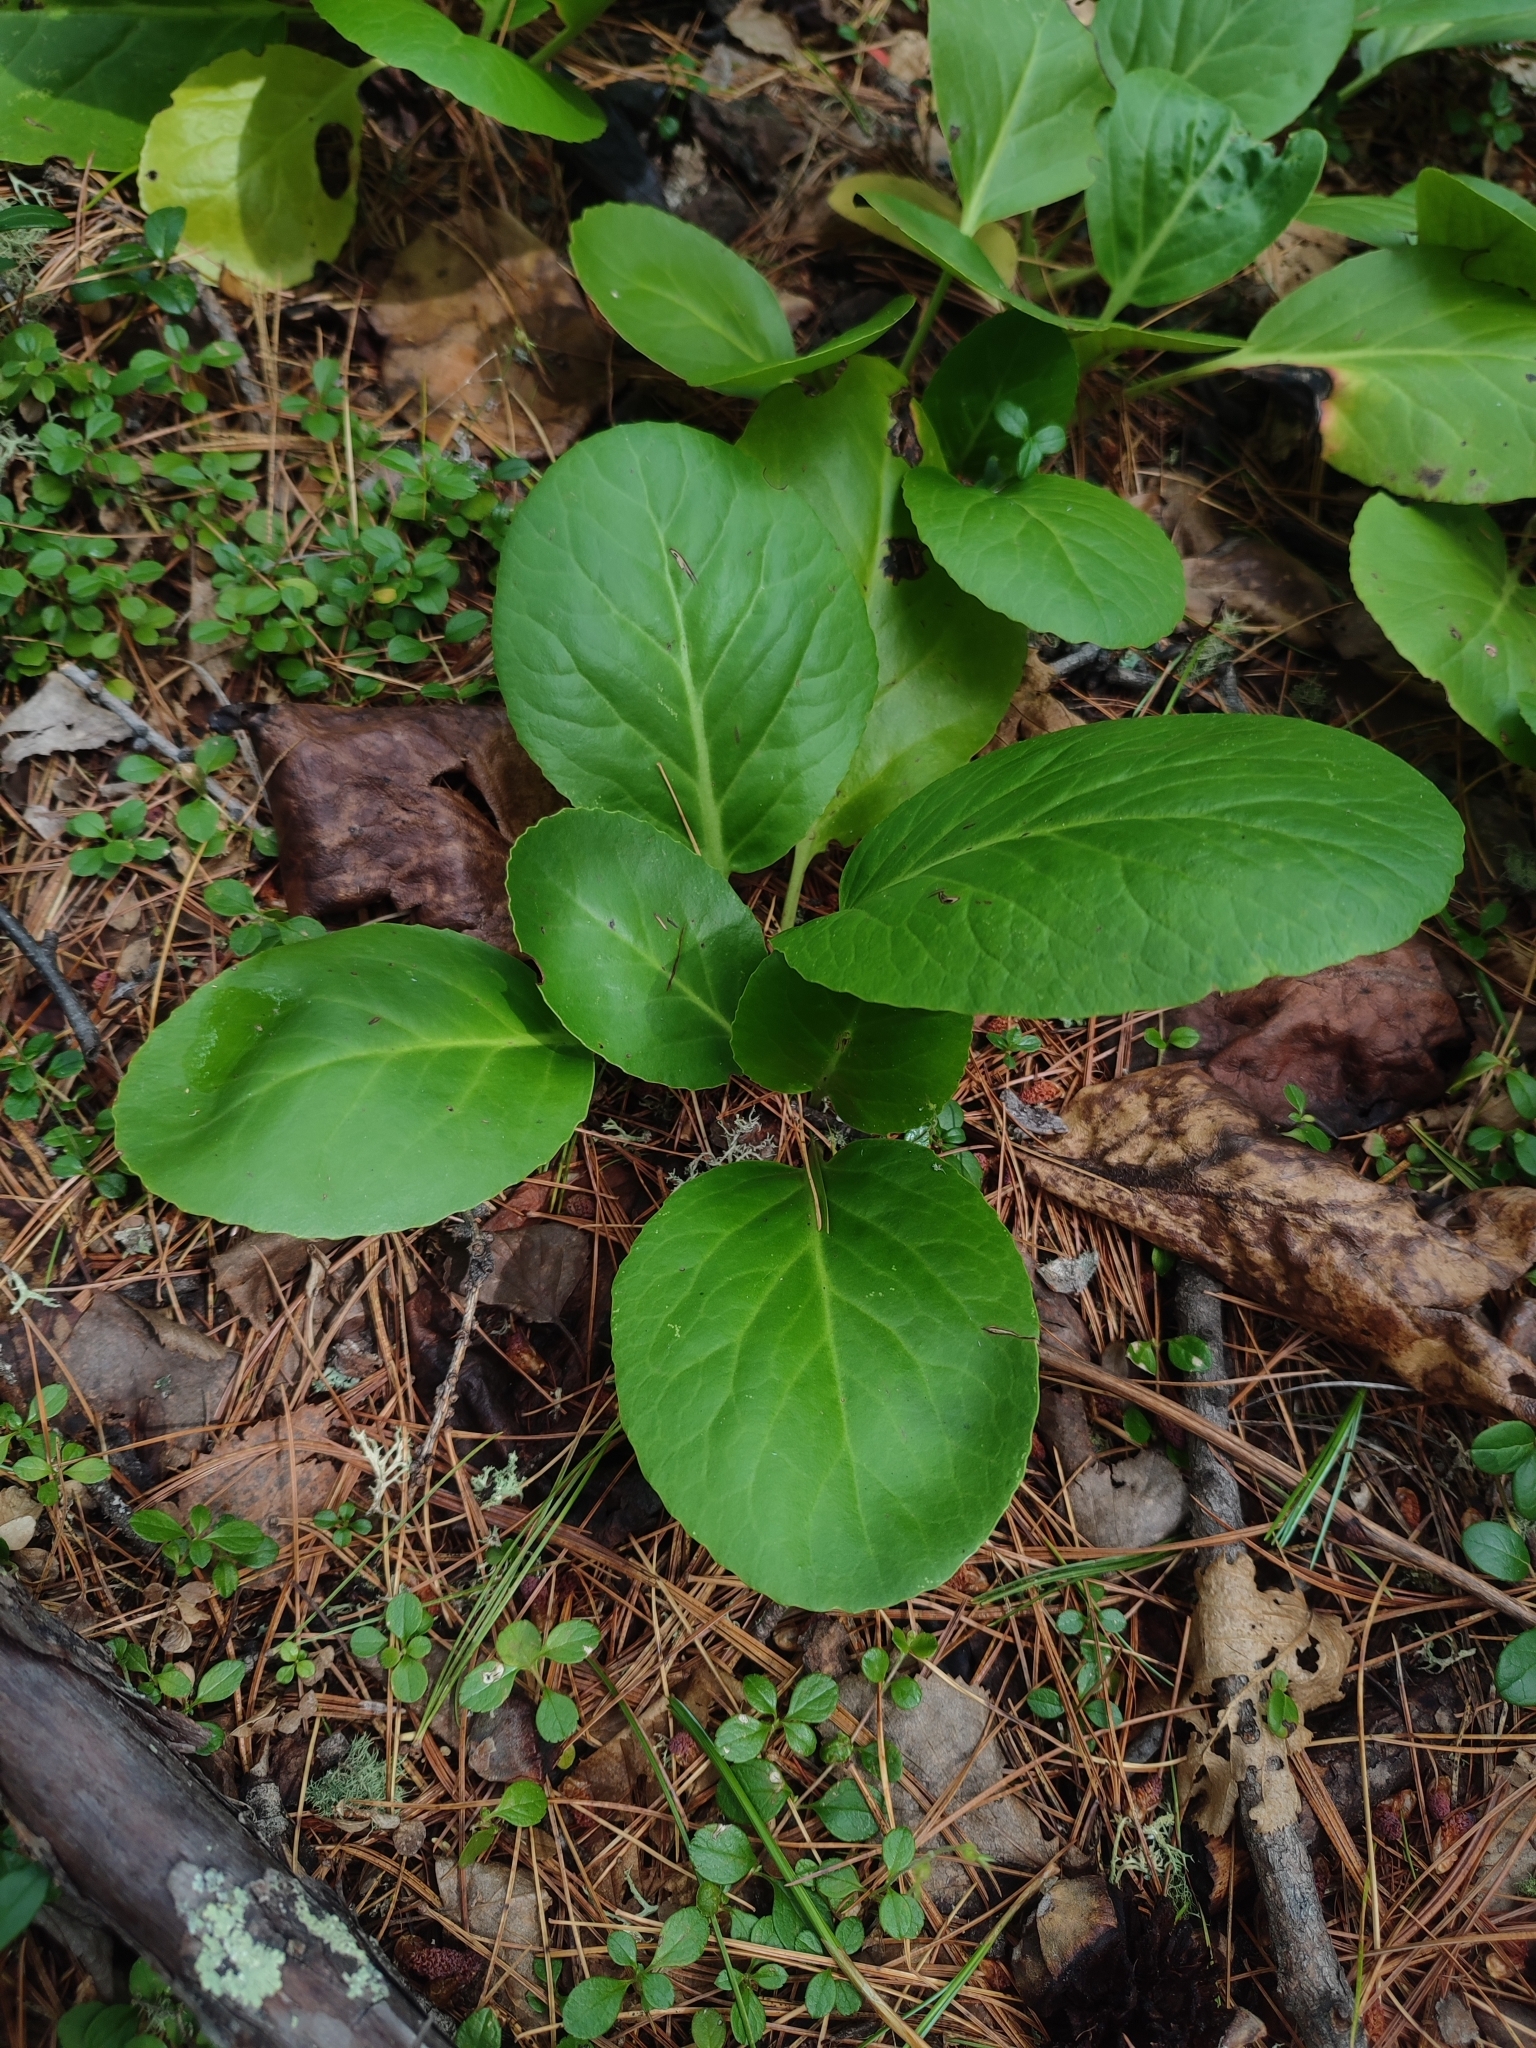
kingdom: Plantae
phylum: Tracheophyta
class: Magnoliopsida
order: Saxifragales
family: Saxifragaceae
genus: Bergenia
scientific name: Bergenia crassifolia
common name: Elephant-ears
